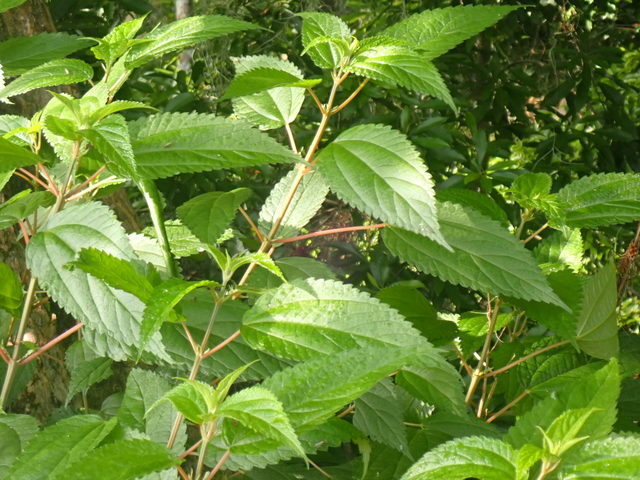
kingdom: Plantae
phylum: Tracheophyta
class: Magnoliopsida
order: Rosales
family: Urticaceae
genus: Boehmeria
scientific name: Boehmeria cylindrica
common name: Bog-hemp
